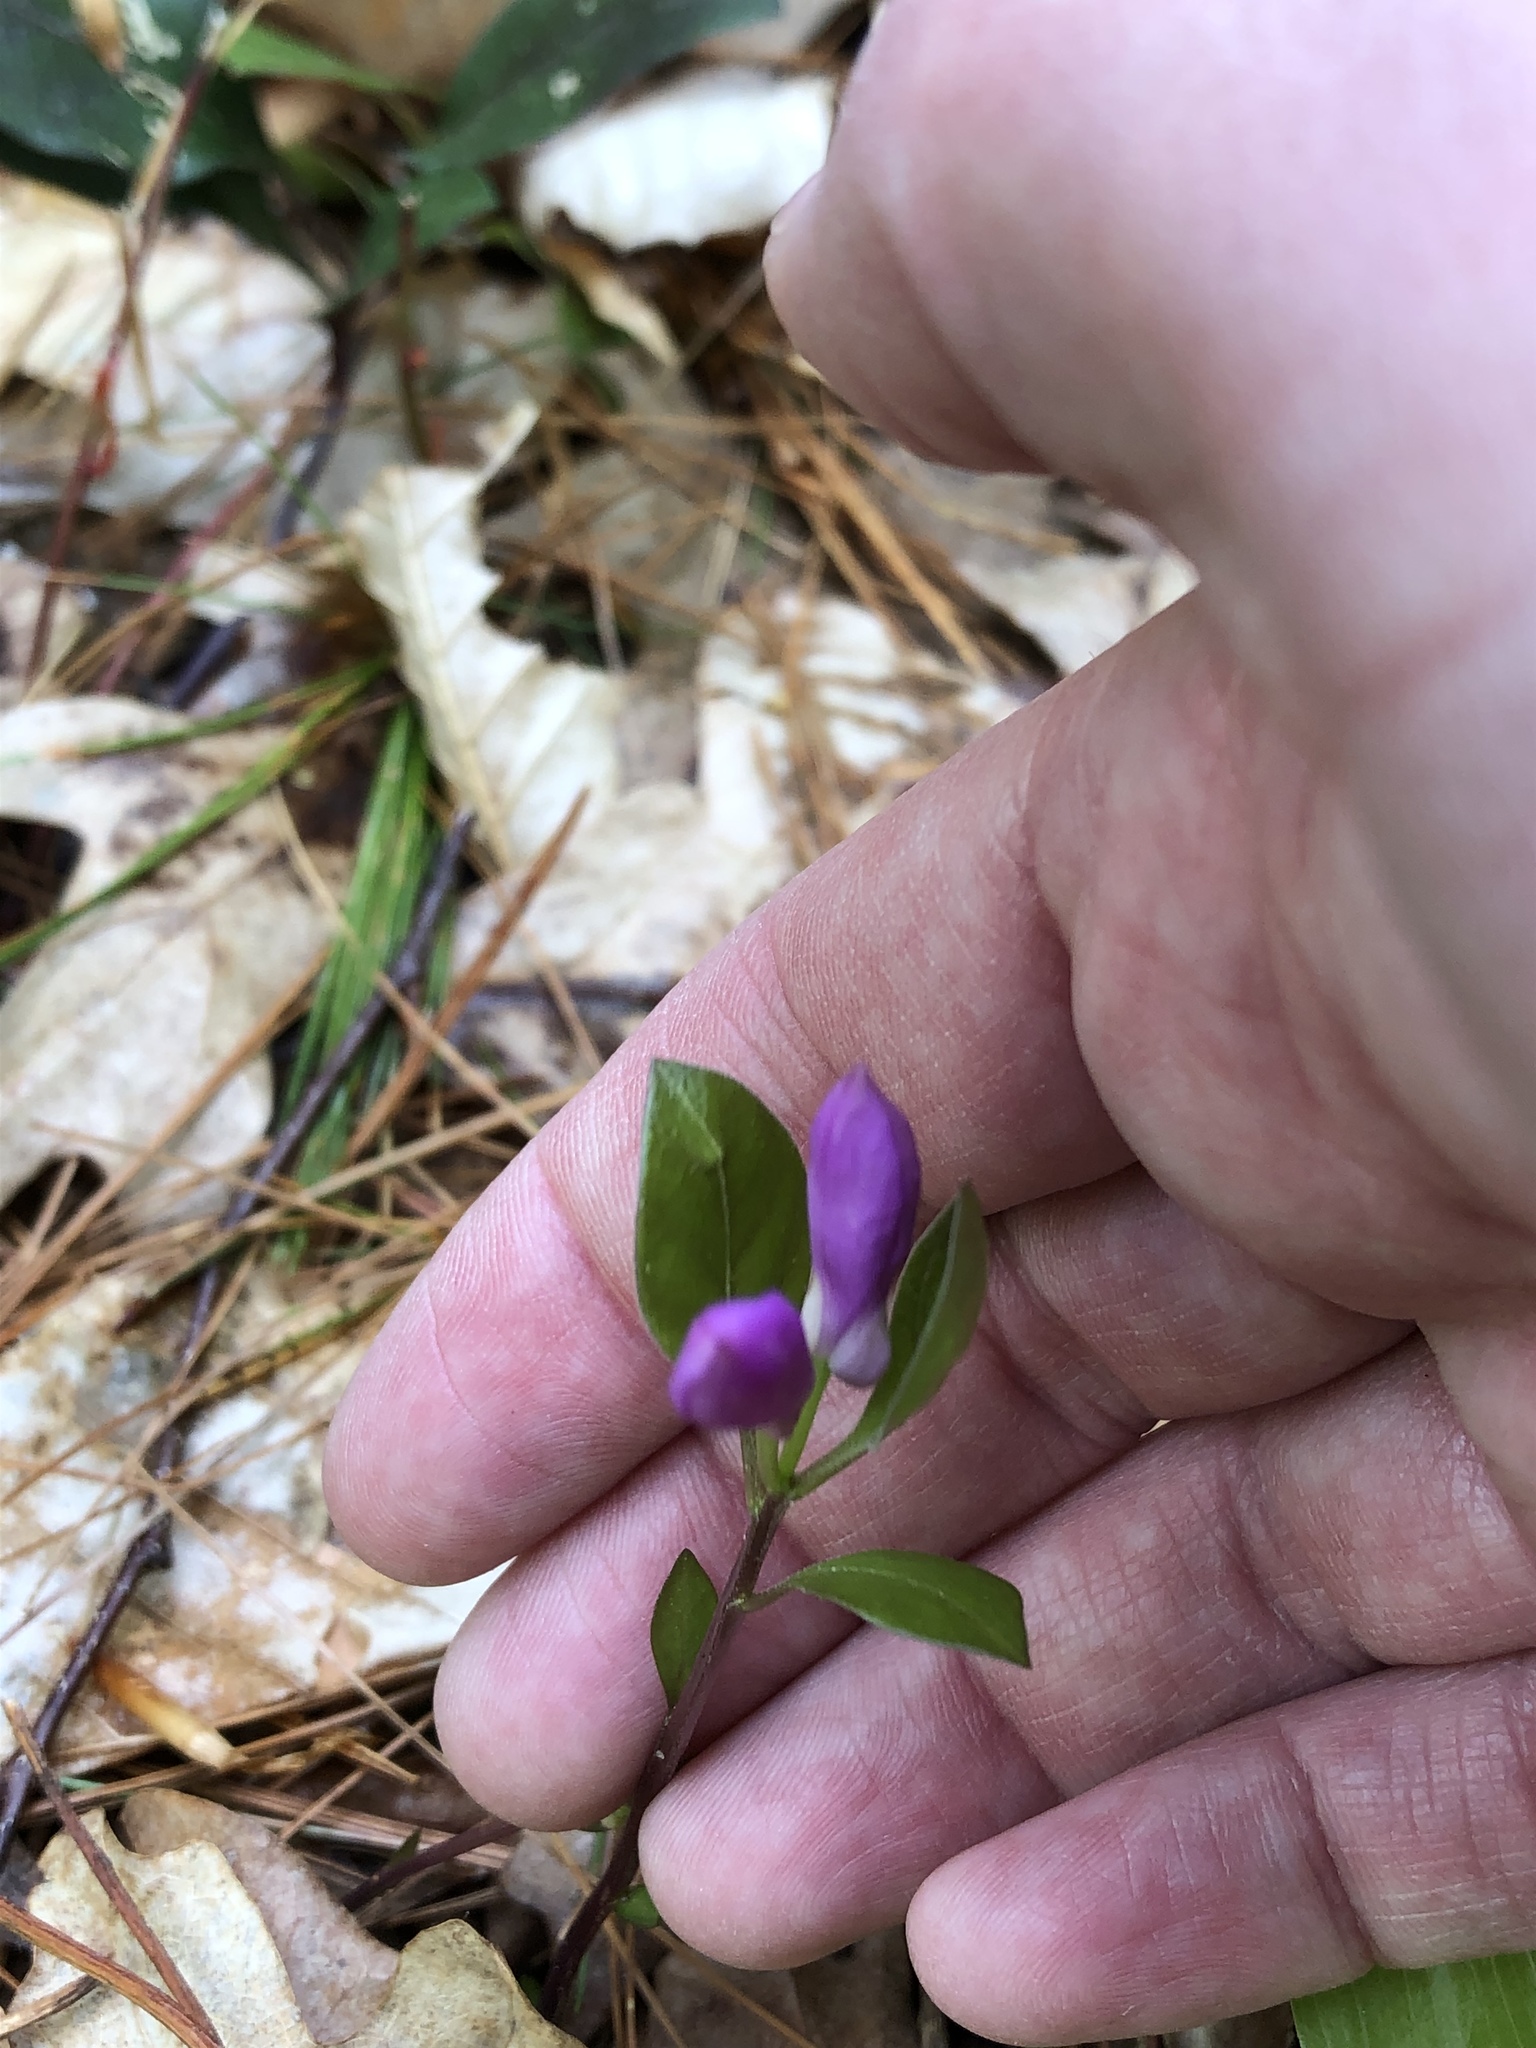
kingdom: Plantae
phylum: Tracheophyta
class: Magnoliopsida
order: Fabales
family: Polygalaceae
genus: Polygaloides
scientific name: Polygaloides paucifolia
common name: Bird-on-the-wing
